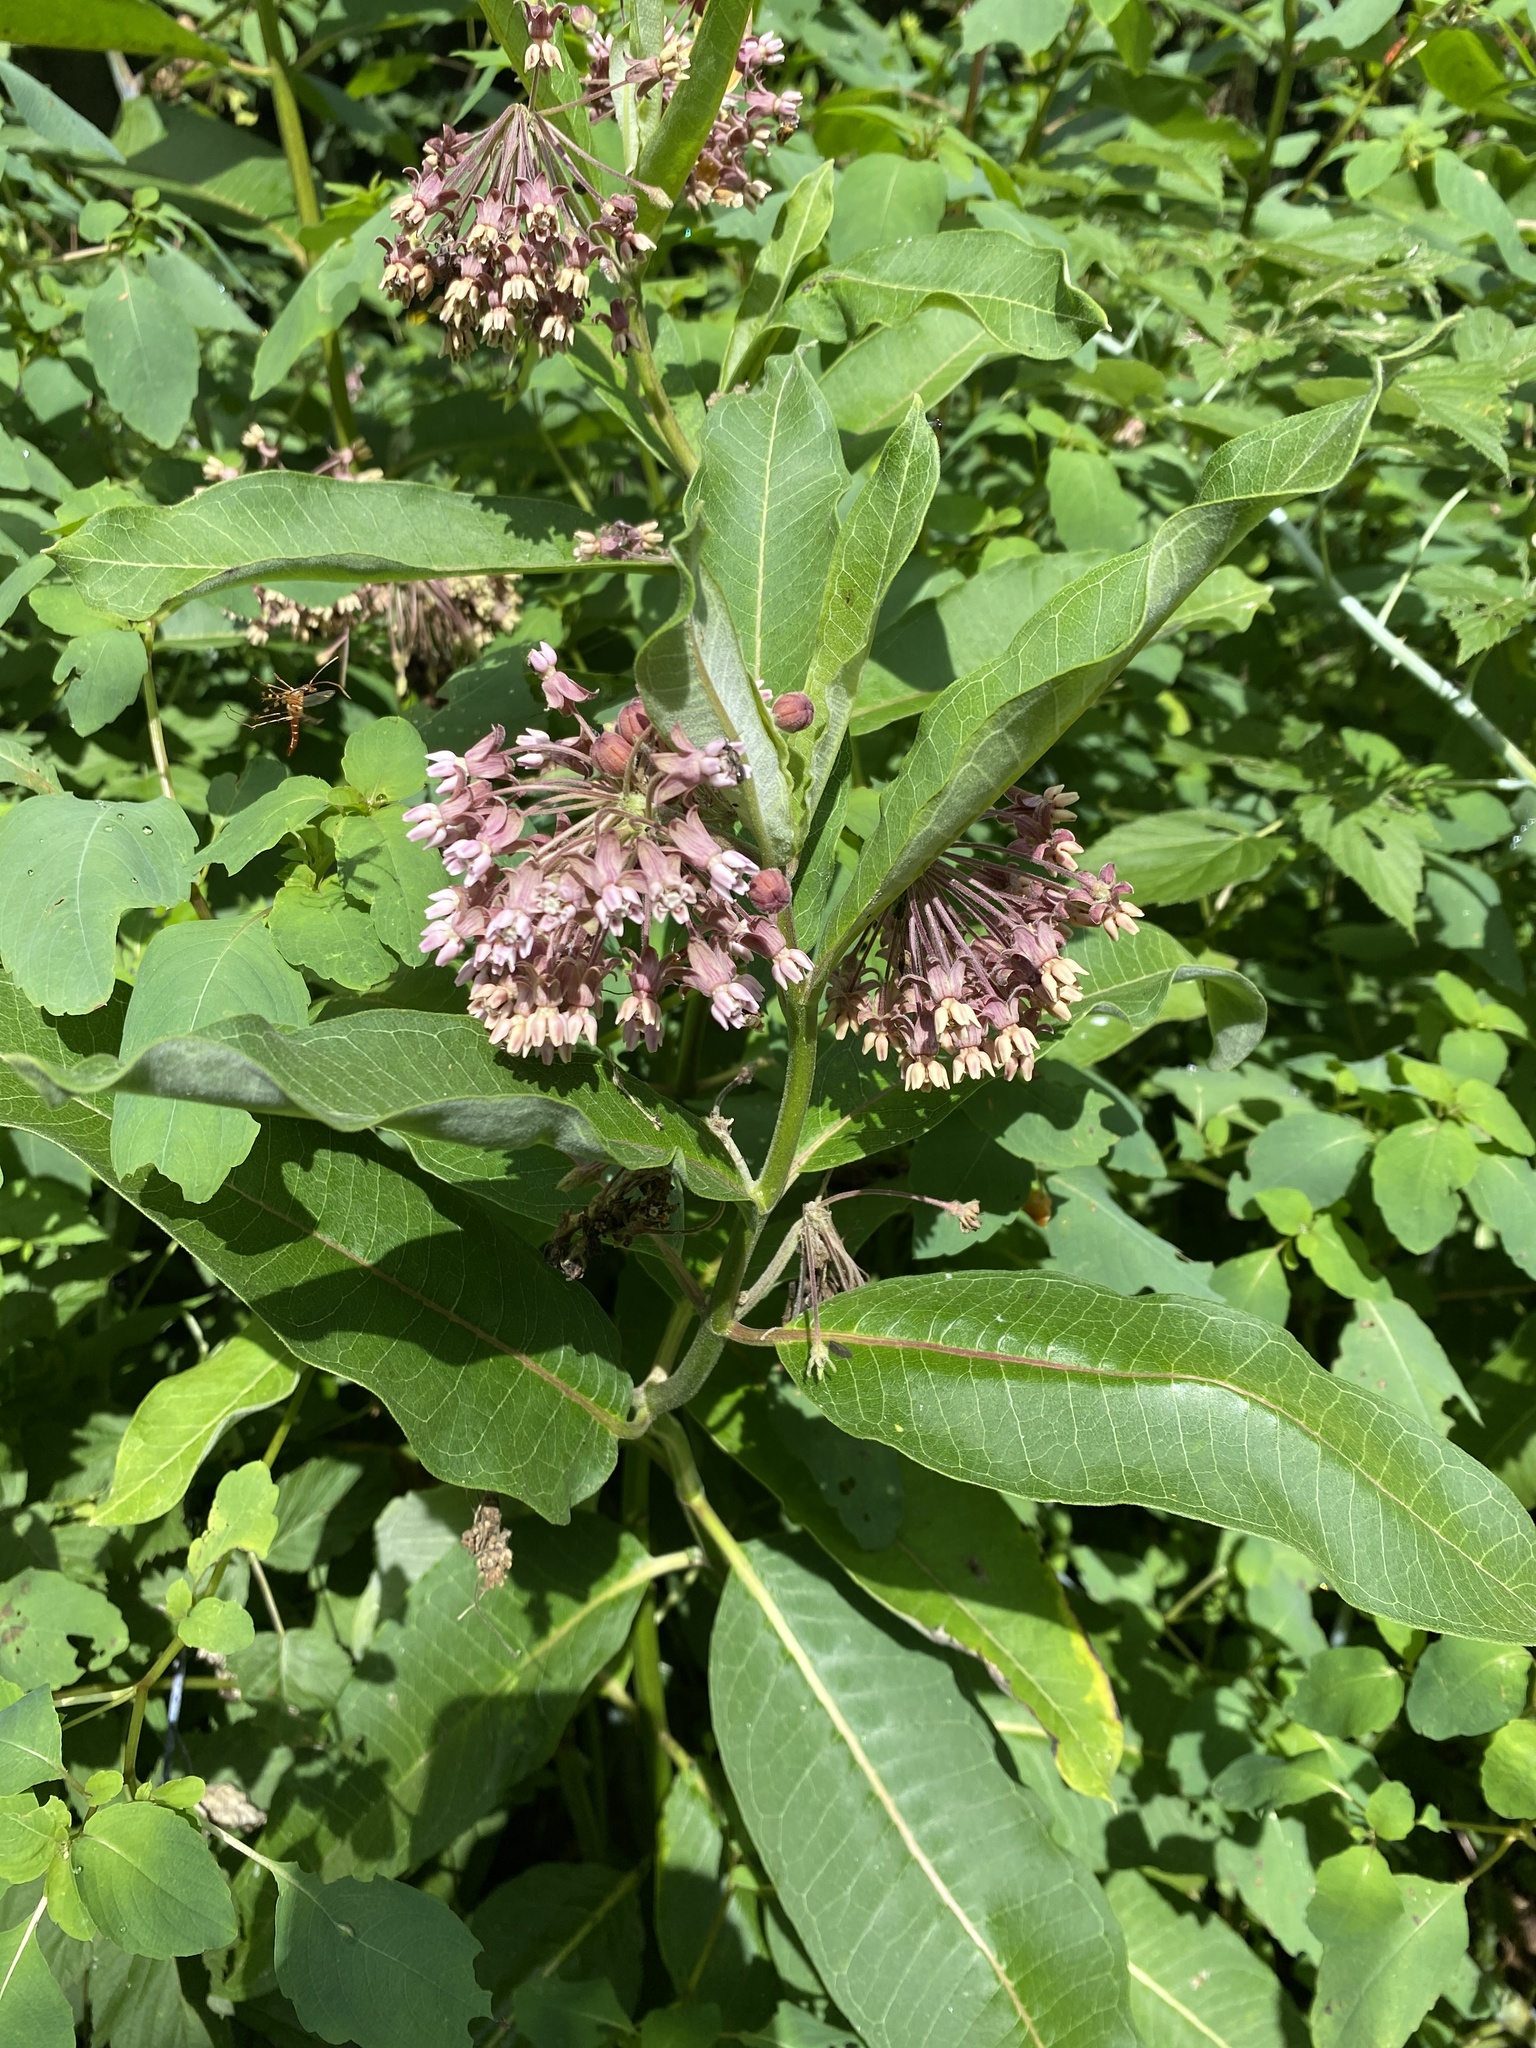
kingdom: Plantae
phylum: Tracheophyta
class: Magnoliopsida
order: Gentianales
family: Apocynaceae
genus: Asclepias
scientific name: Asclepias syriaca
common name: Common milkweed
